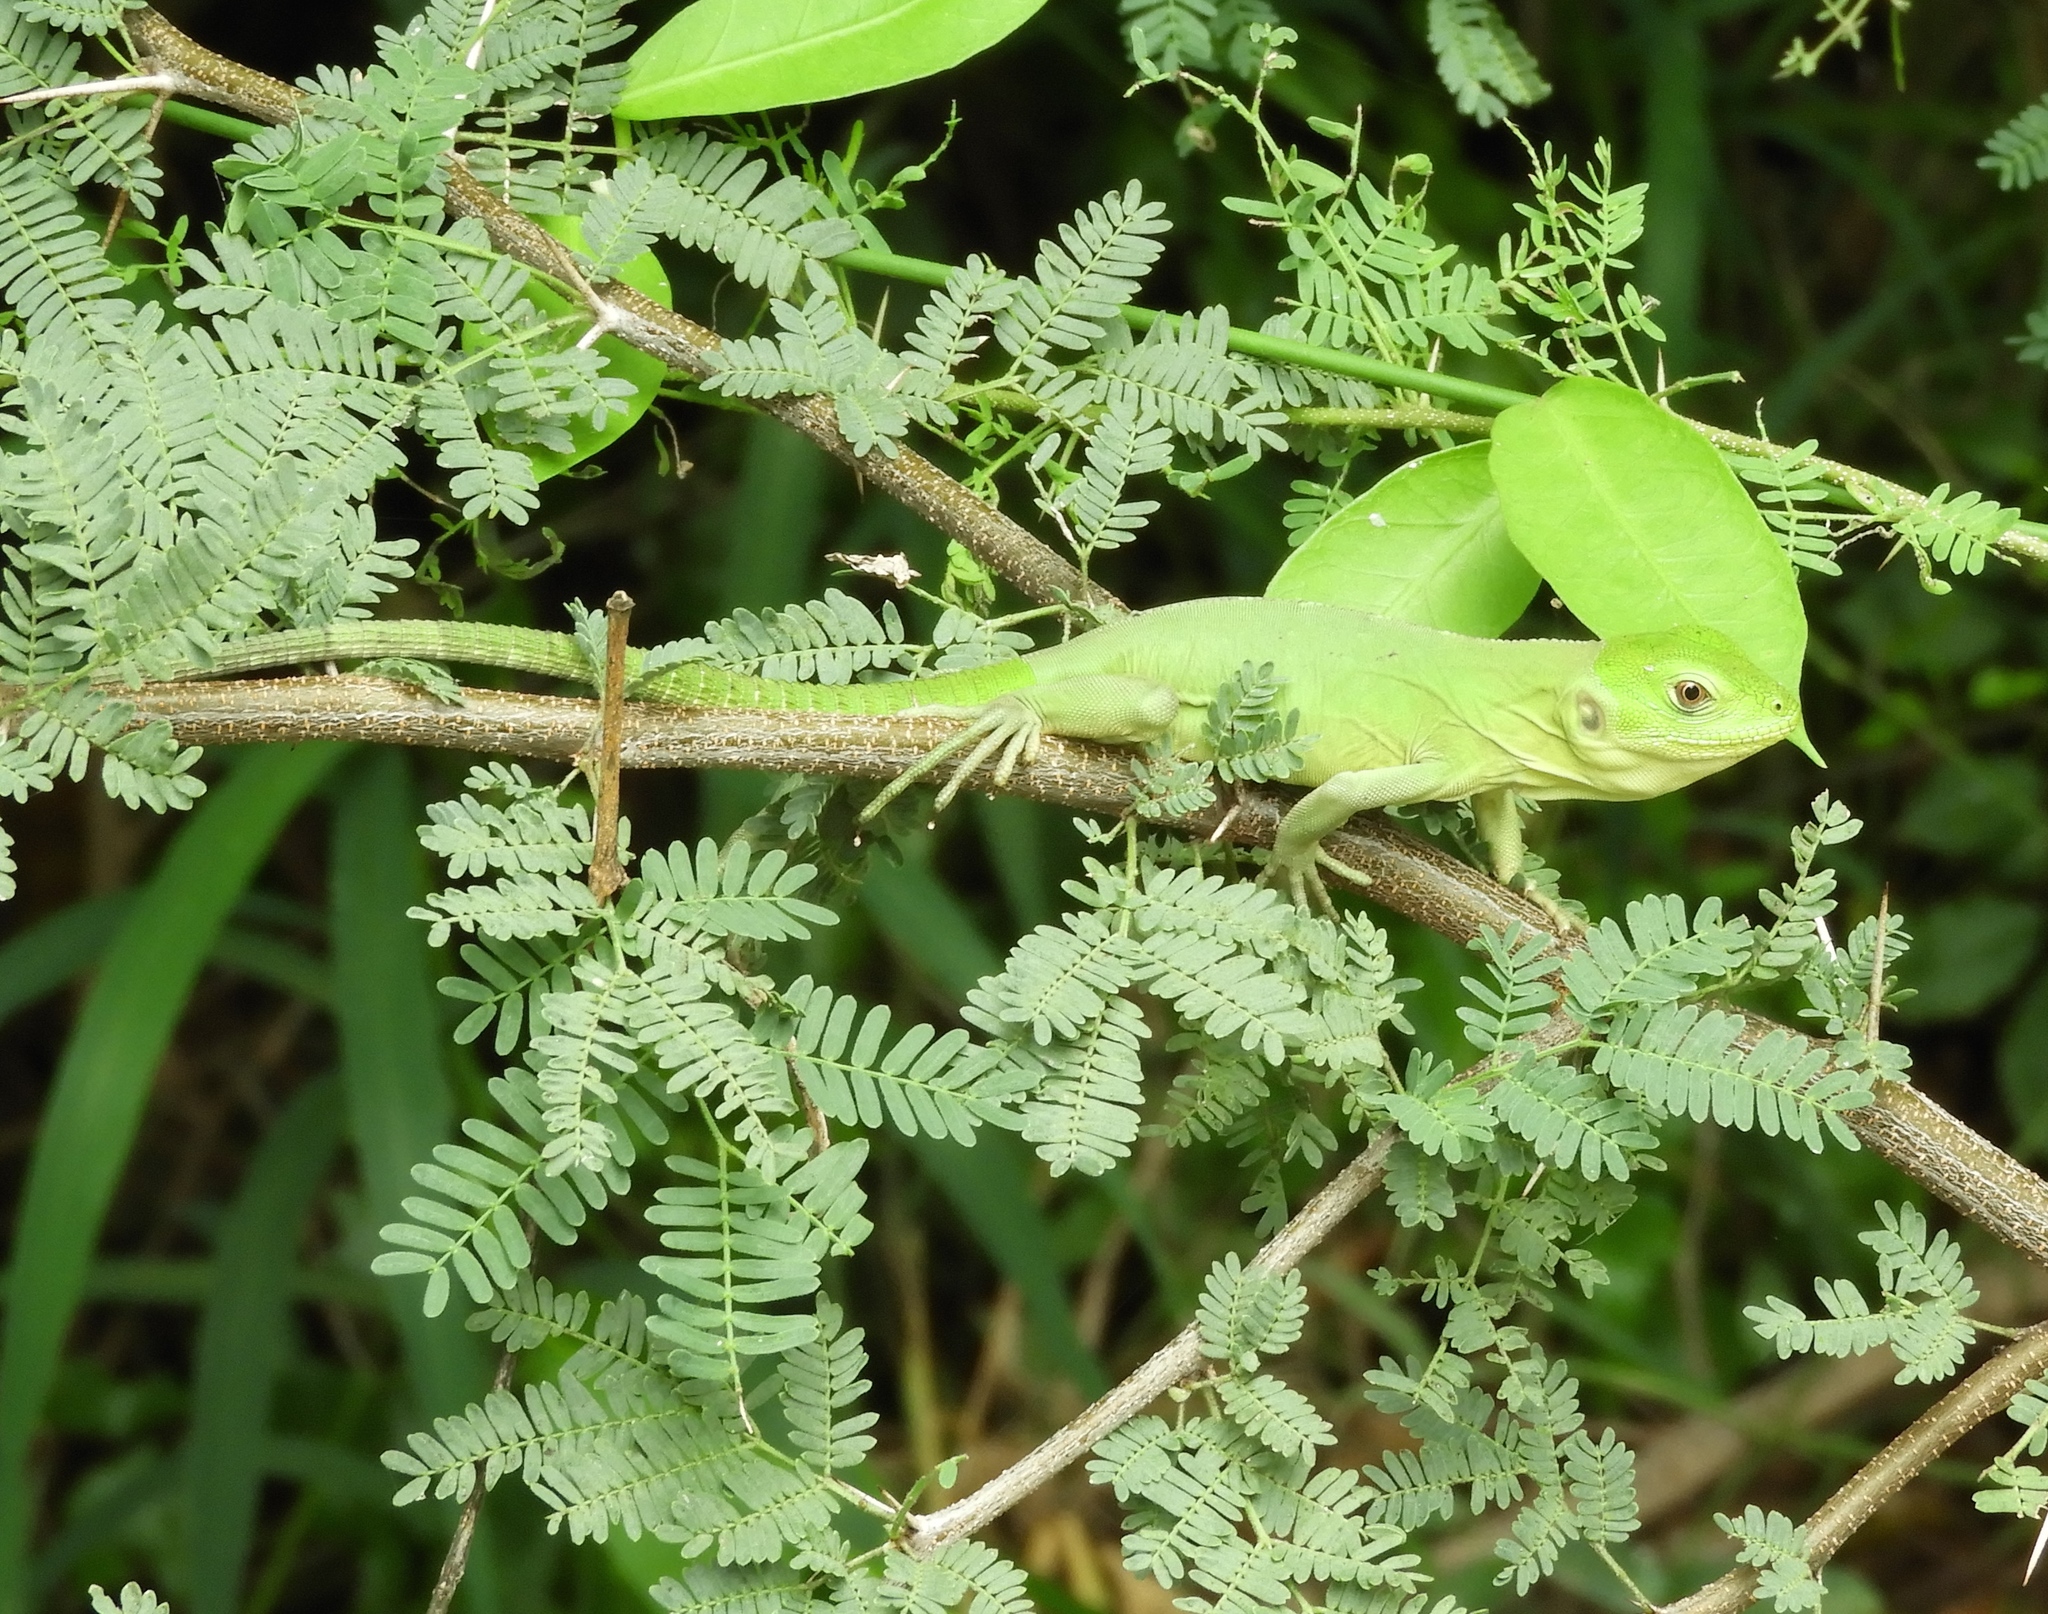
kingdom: Animalia
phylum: Chordata
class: Squamata
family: Iguanidae
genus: Ctenosaura
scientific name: Ctenosaura pectinata
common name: Guerreran spiny-tailed iguana
